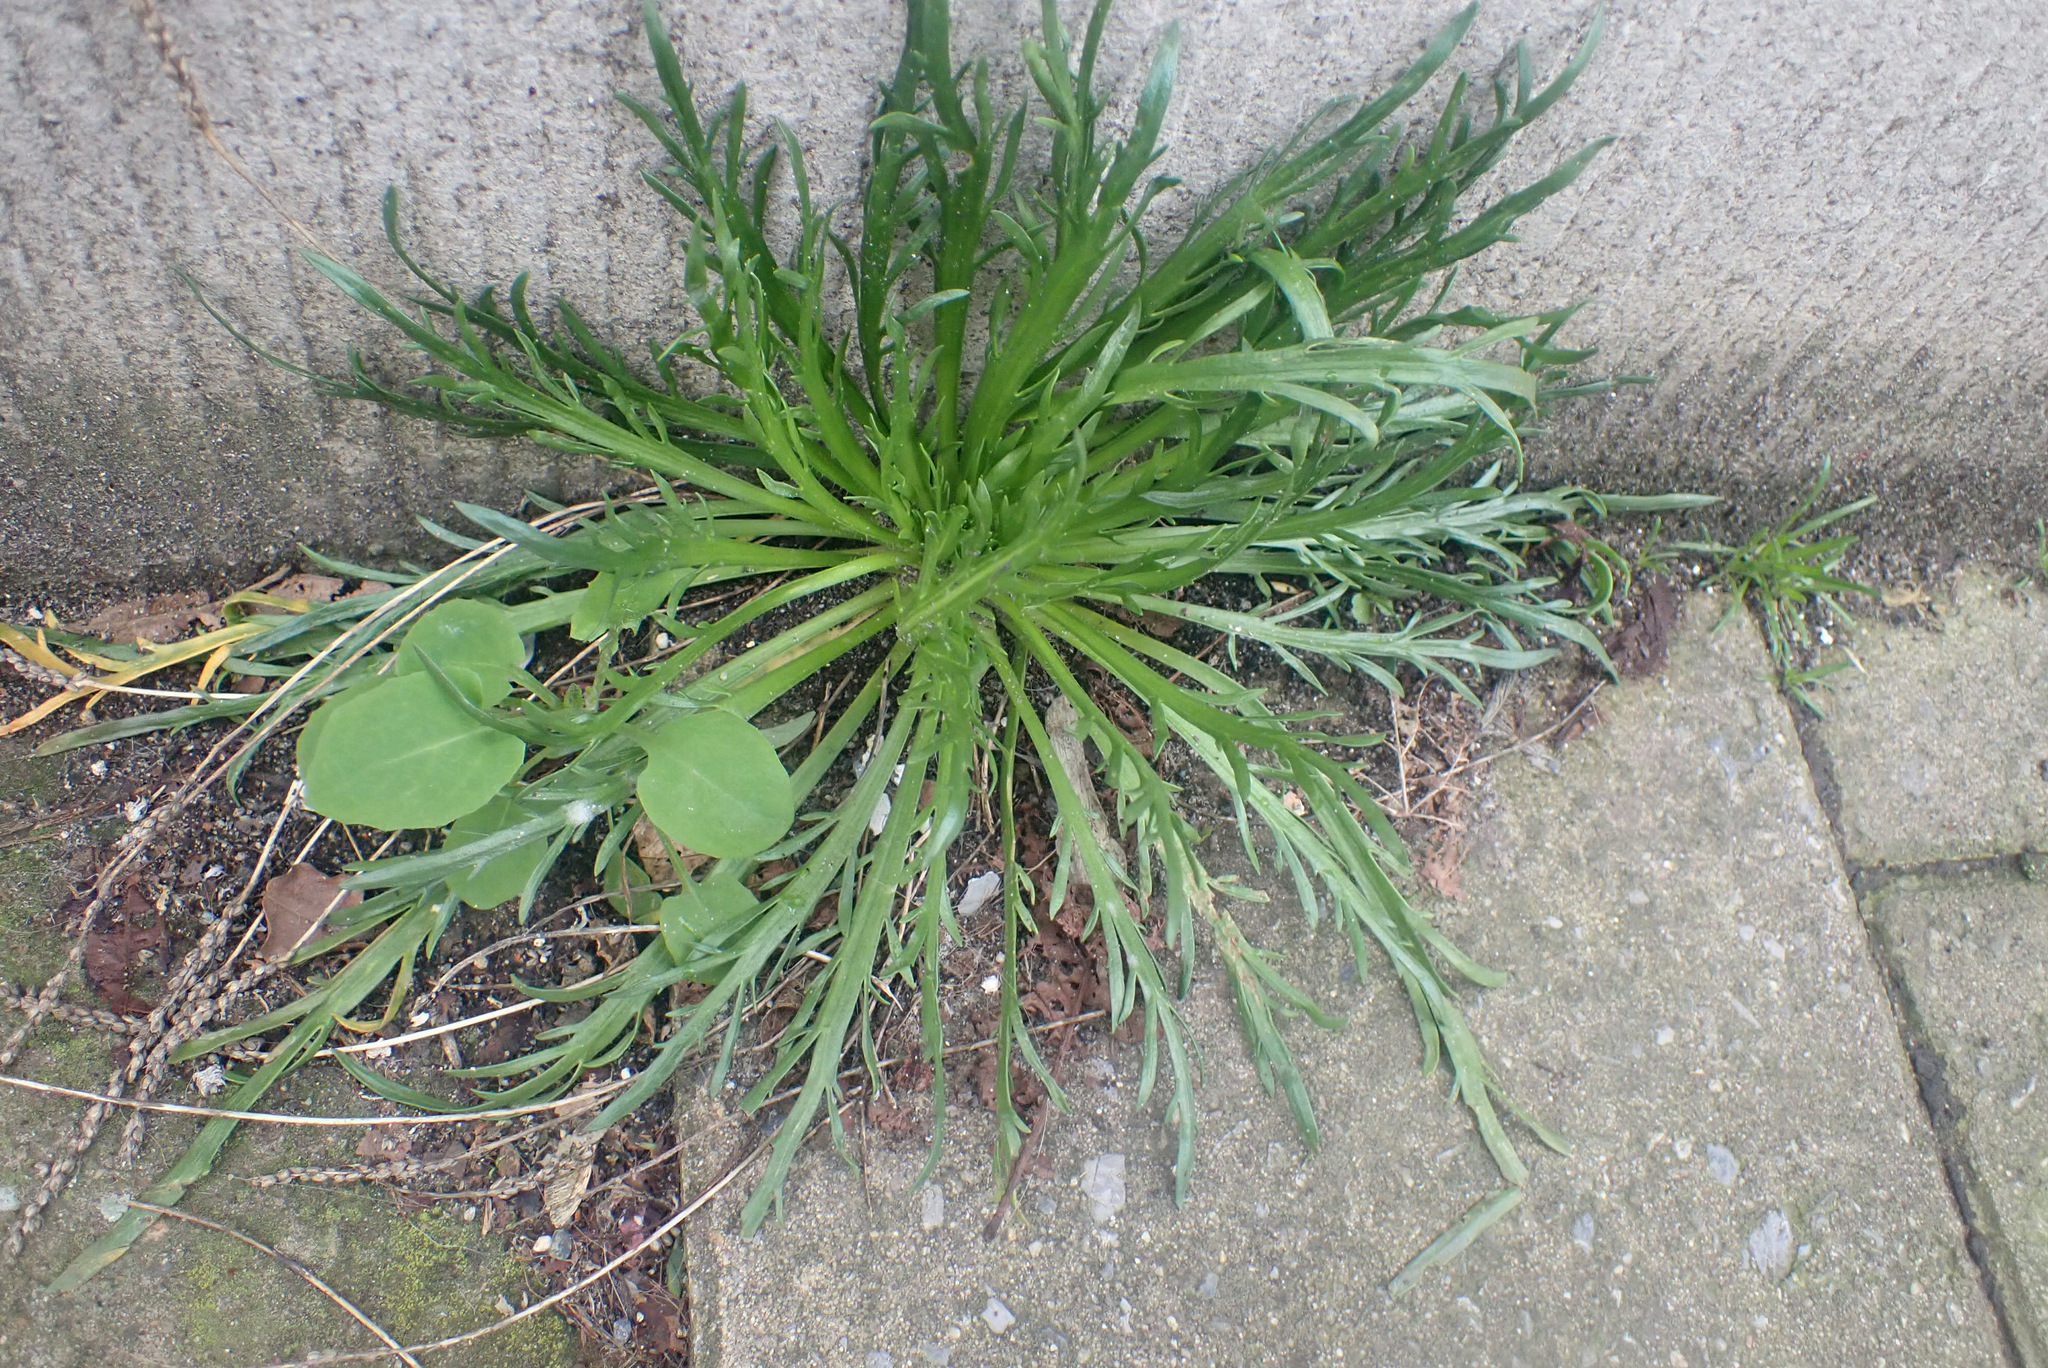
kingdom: Plantae
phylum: Tracheophyta
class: Magnoliopsida
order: Lamiales
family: Plantaginaceae
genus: Plantago
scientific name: Plantago coronopus
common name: Buck's-horn plantain
